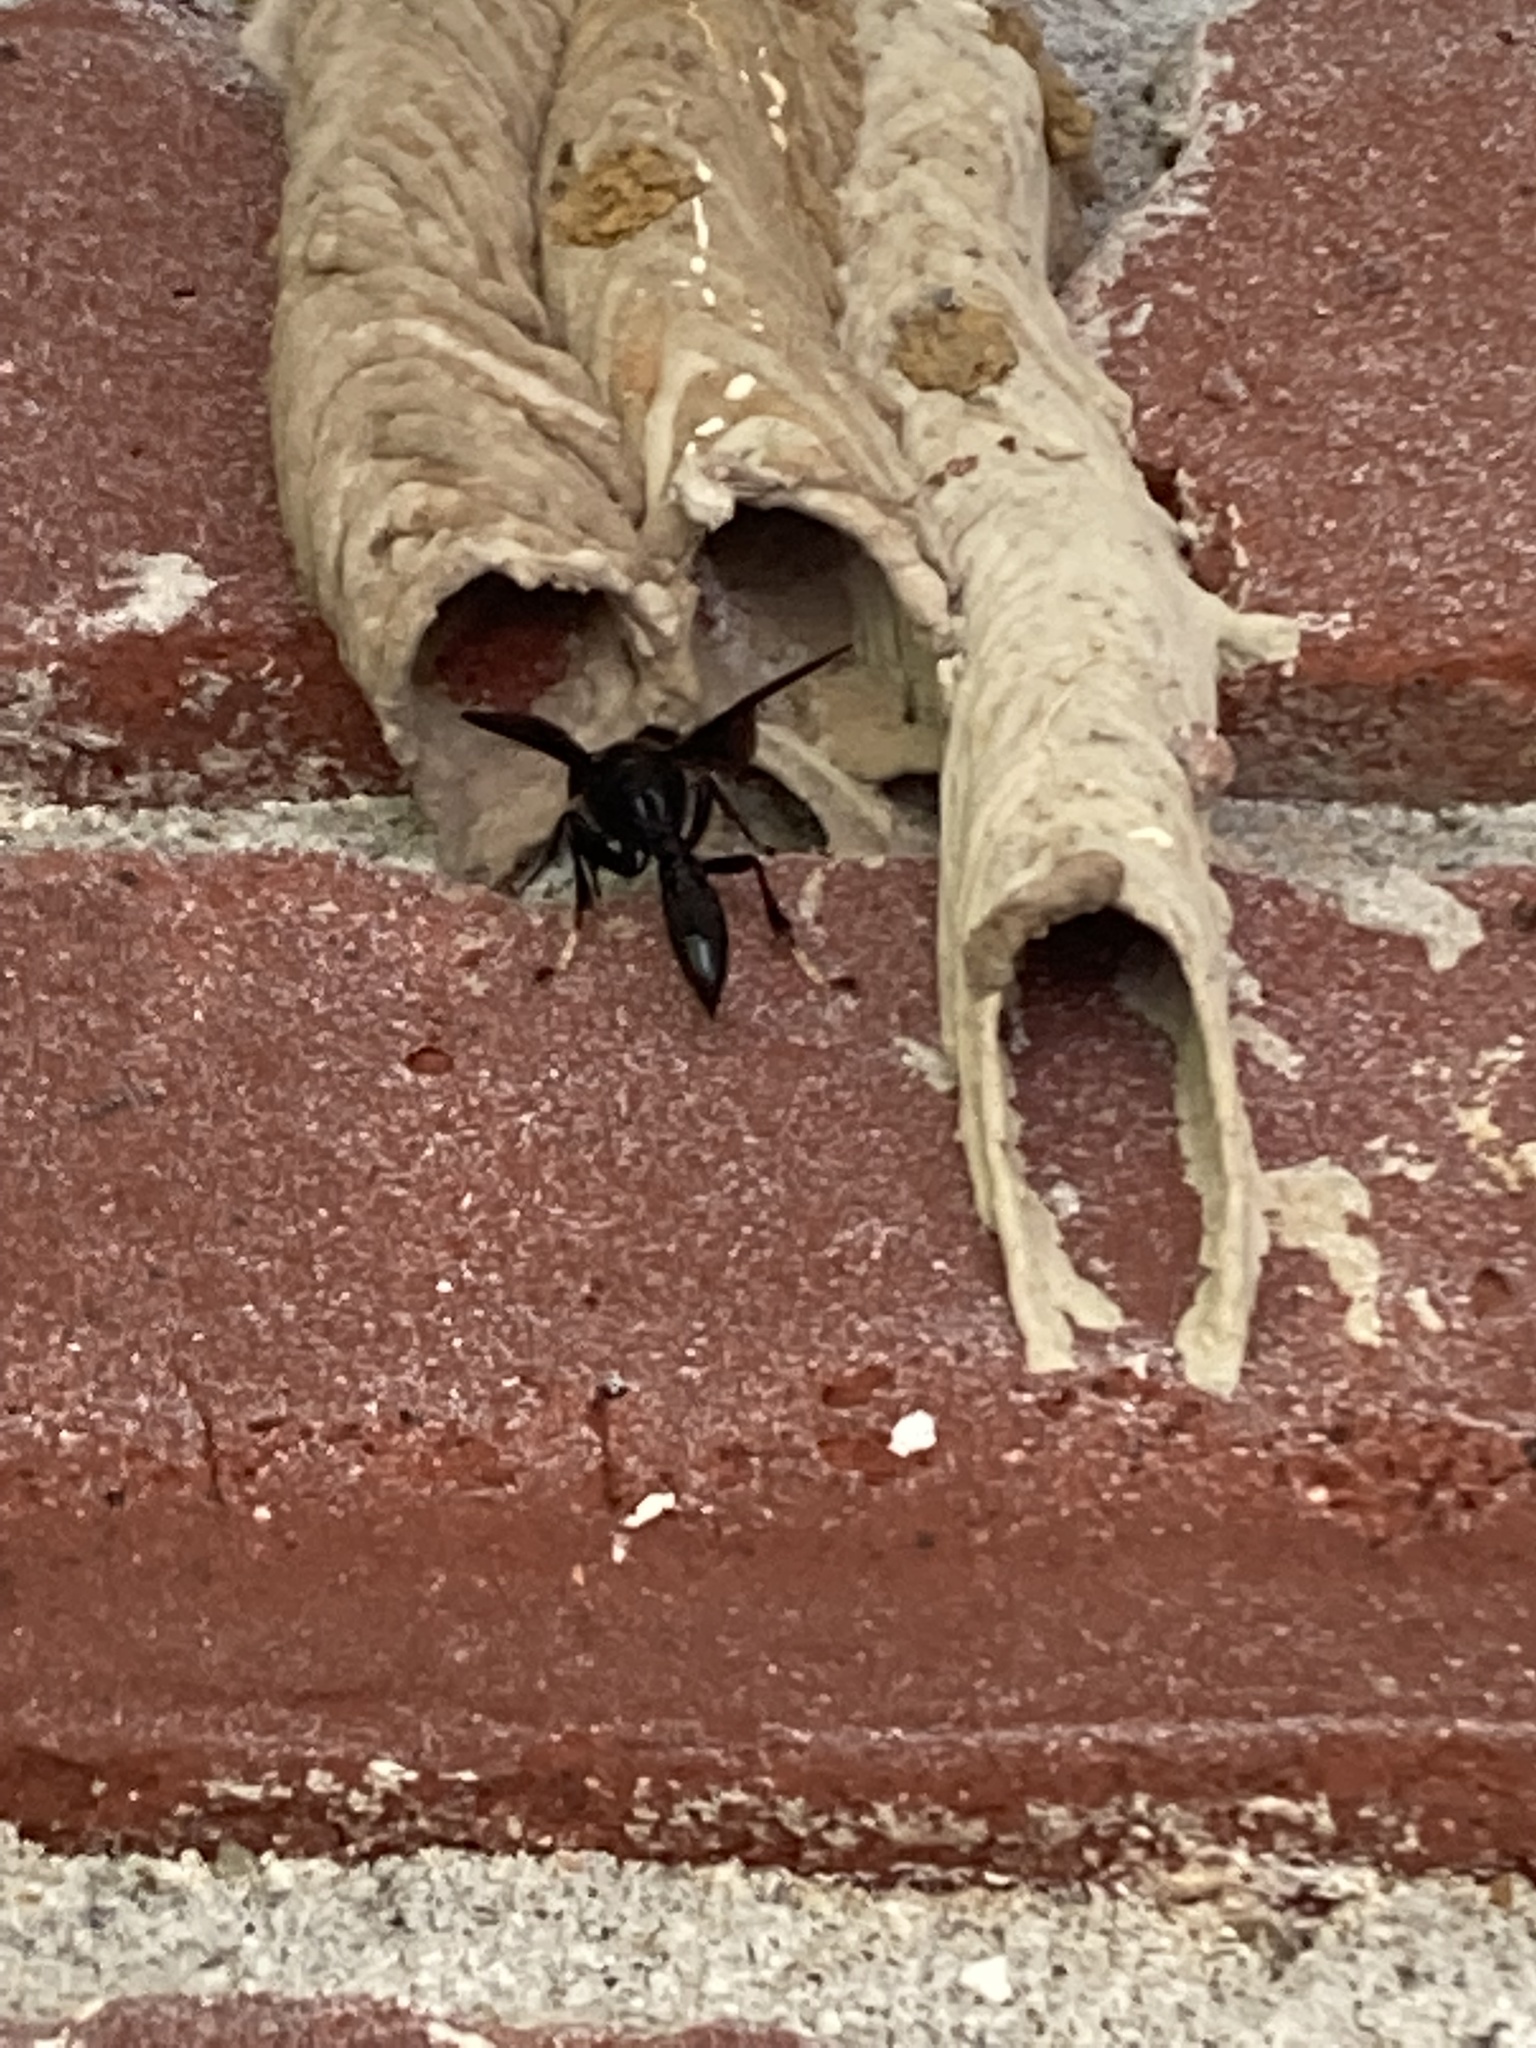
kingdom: Animalia
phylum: Arthropoda
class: Insecta
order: Hymenoptera
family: Crabronidae
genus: Trypoxylon
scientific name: Trypoxylon politum
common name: Organ-pipe mud-dauber wasp
